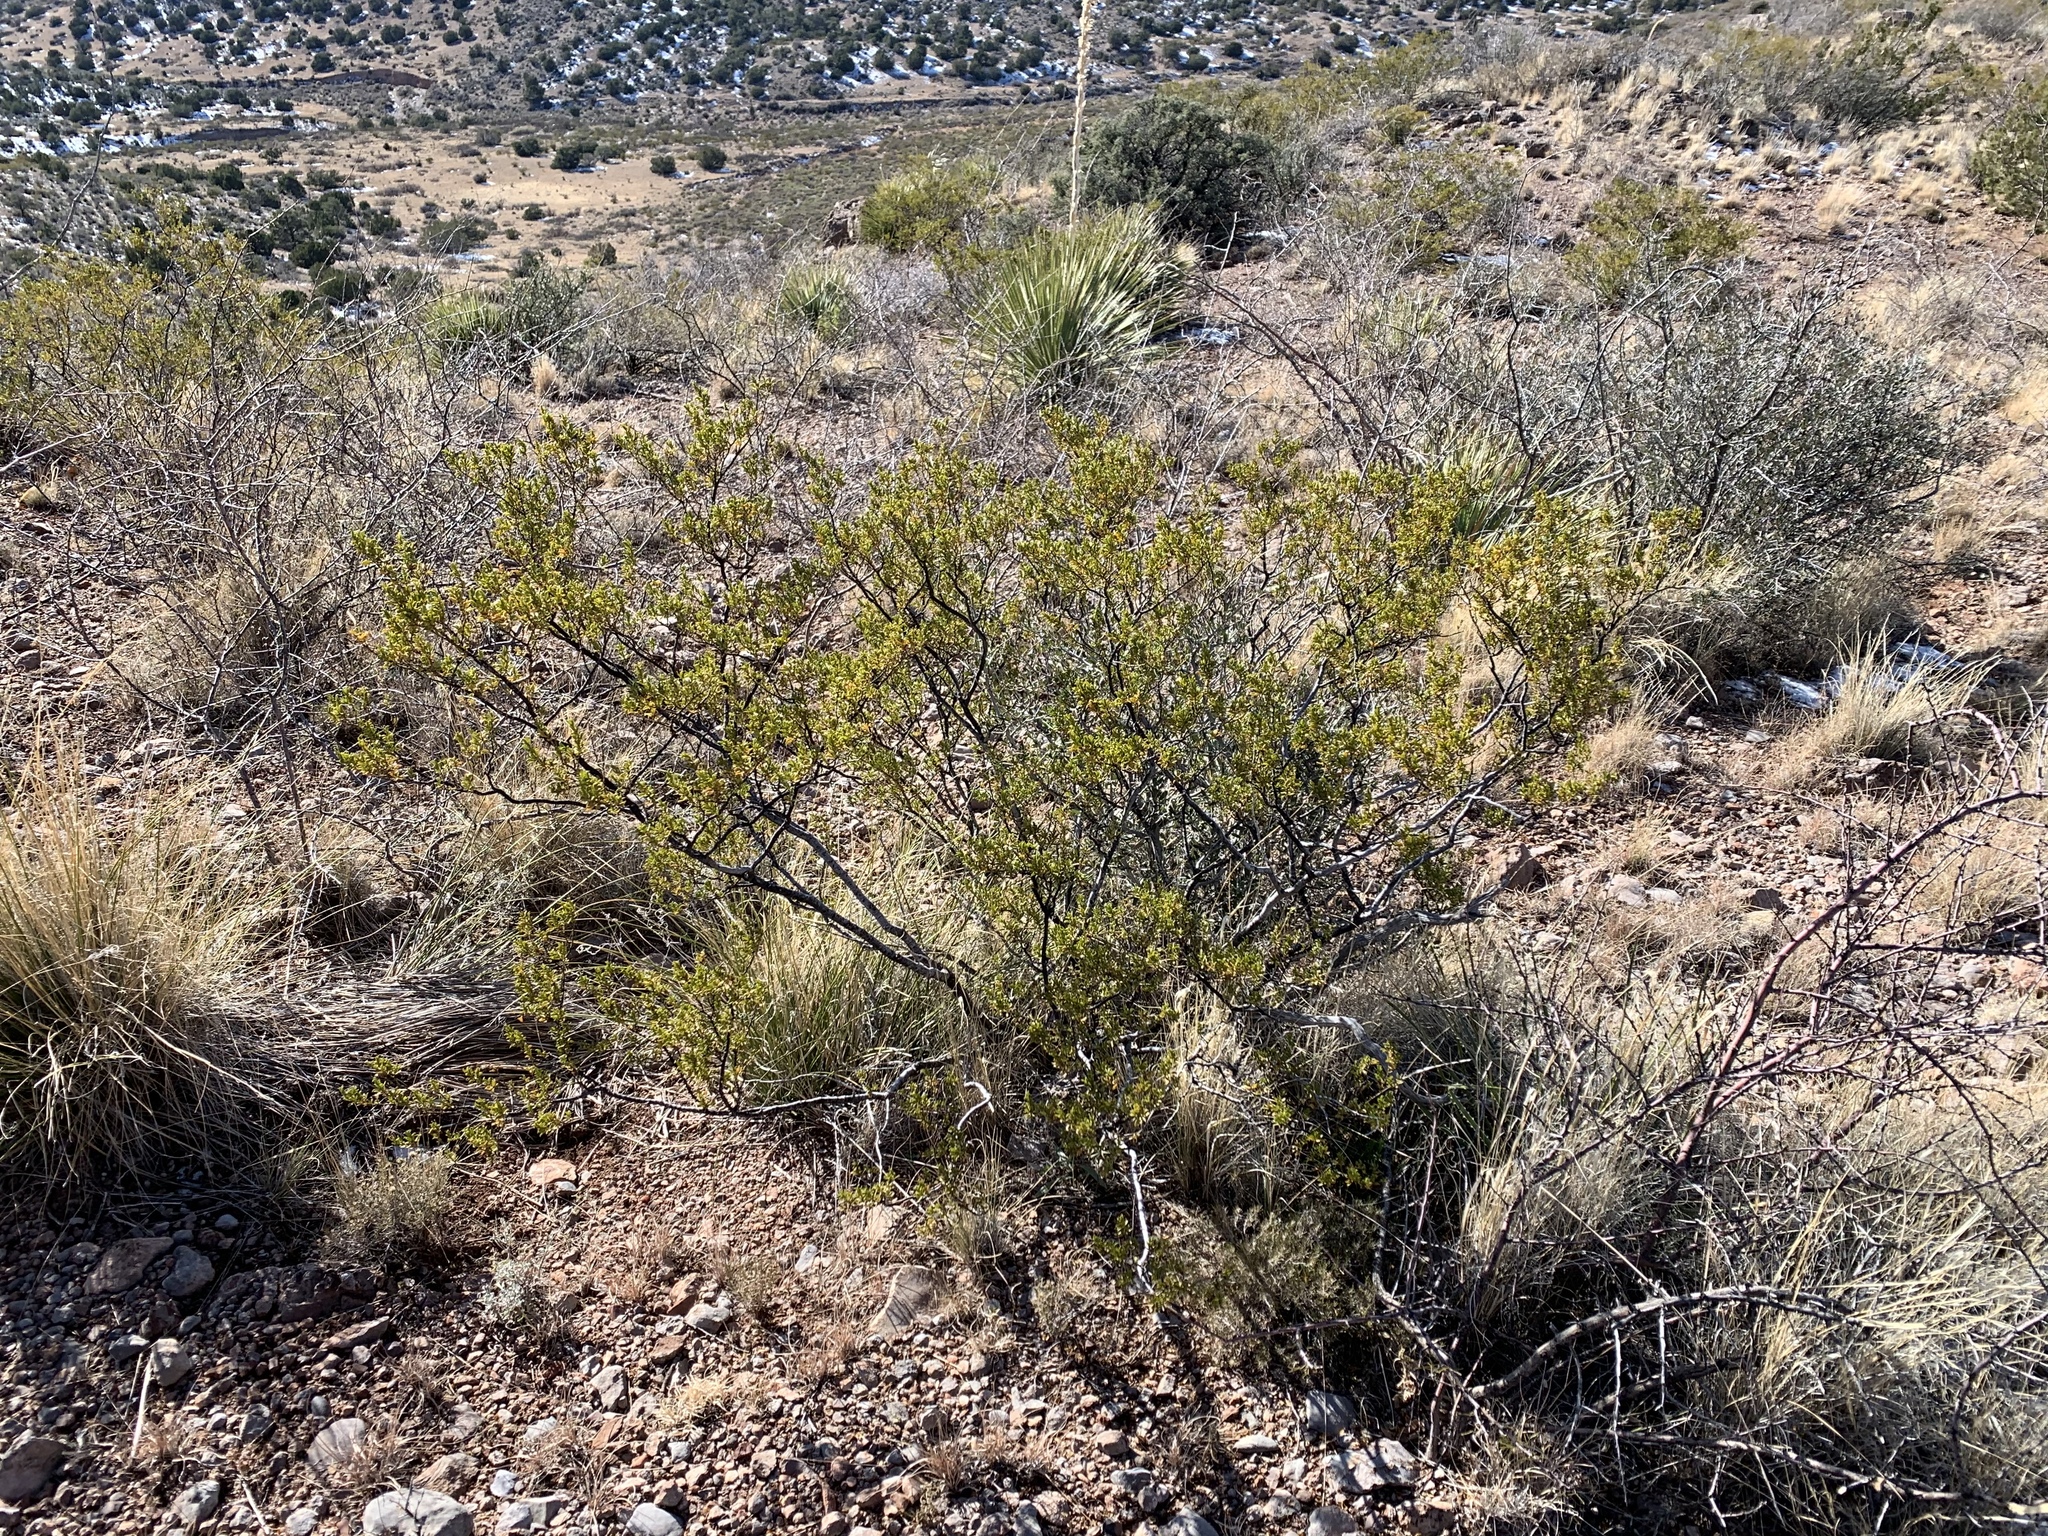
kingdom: Plantae
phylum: Tracheophyta
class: Magnoliopsida
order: Zygophyllales
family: Zygophyllaceae
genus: Larrea
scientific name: Larrea tridentata
